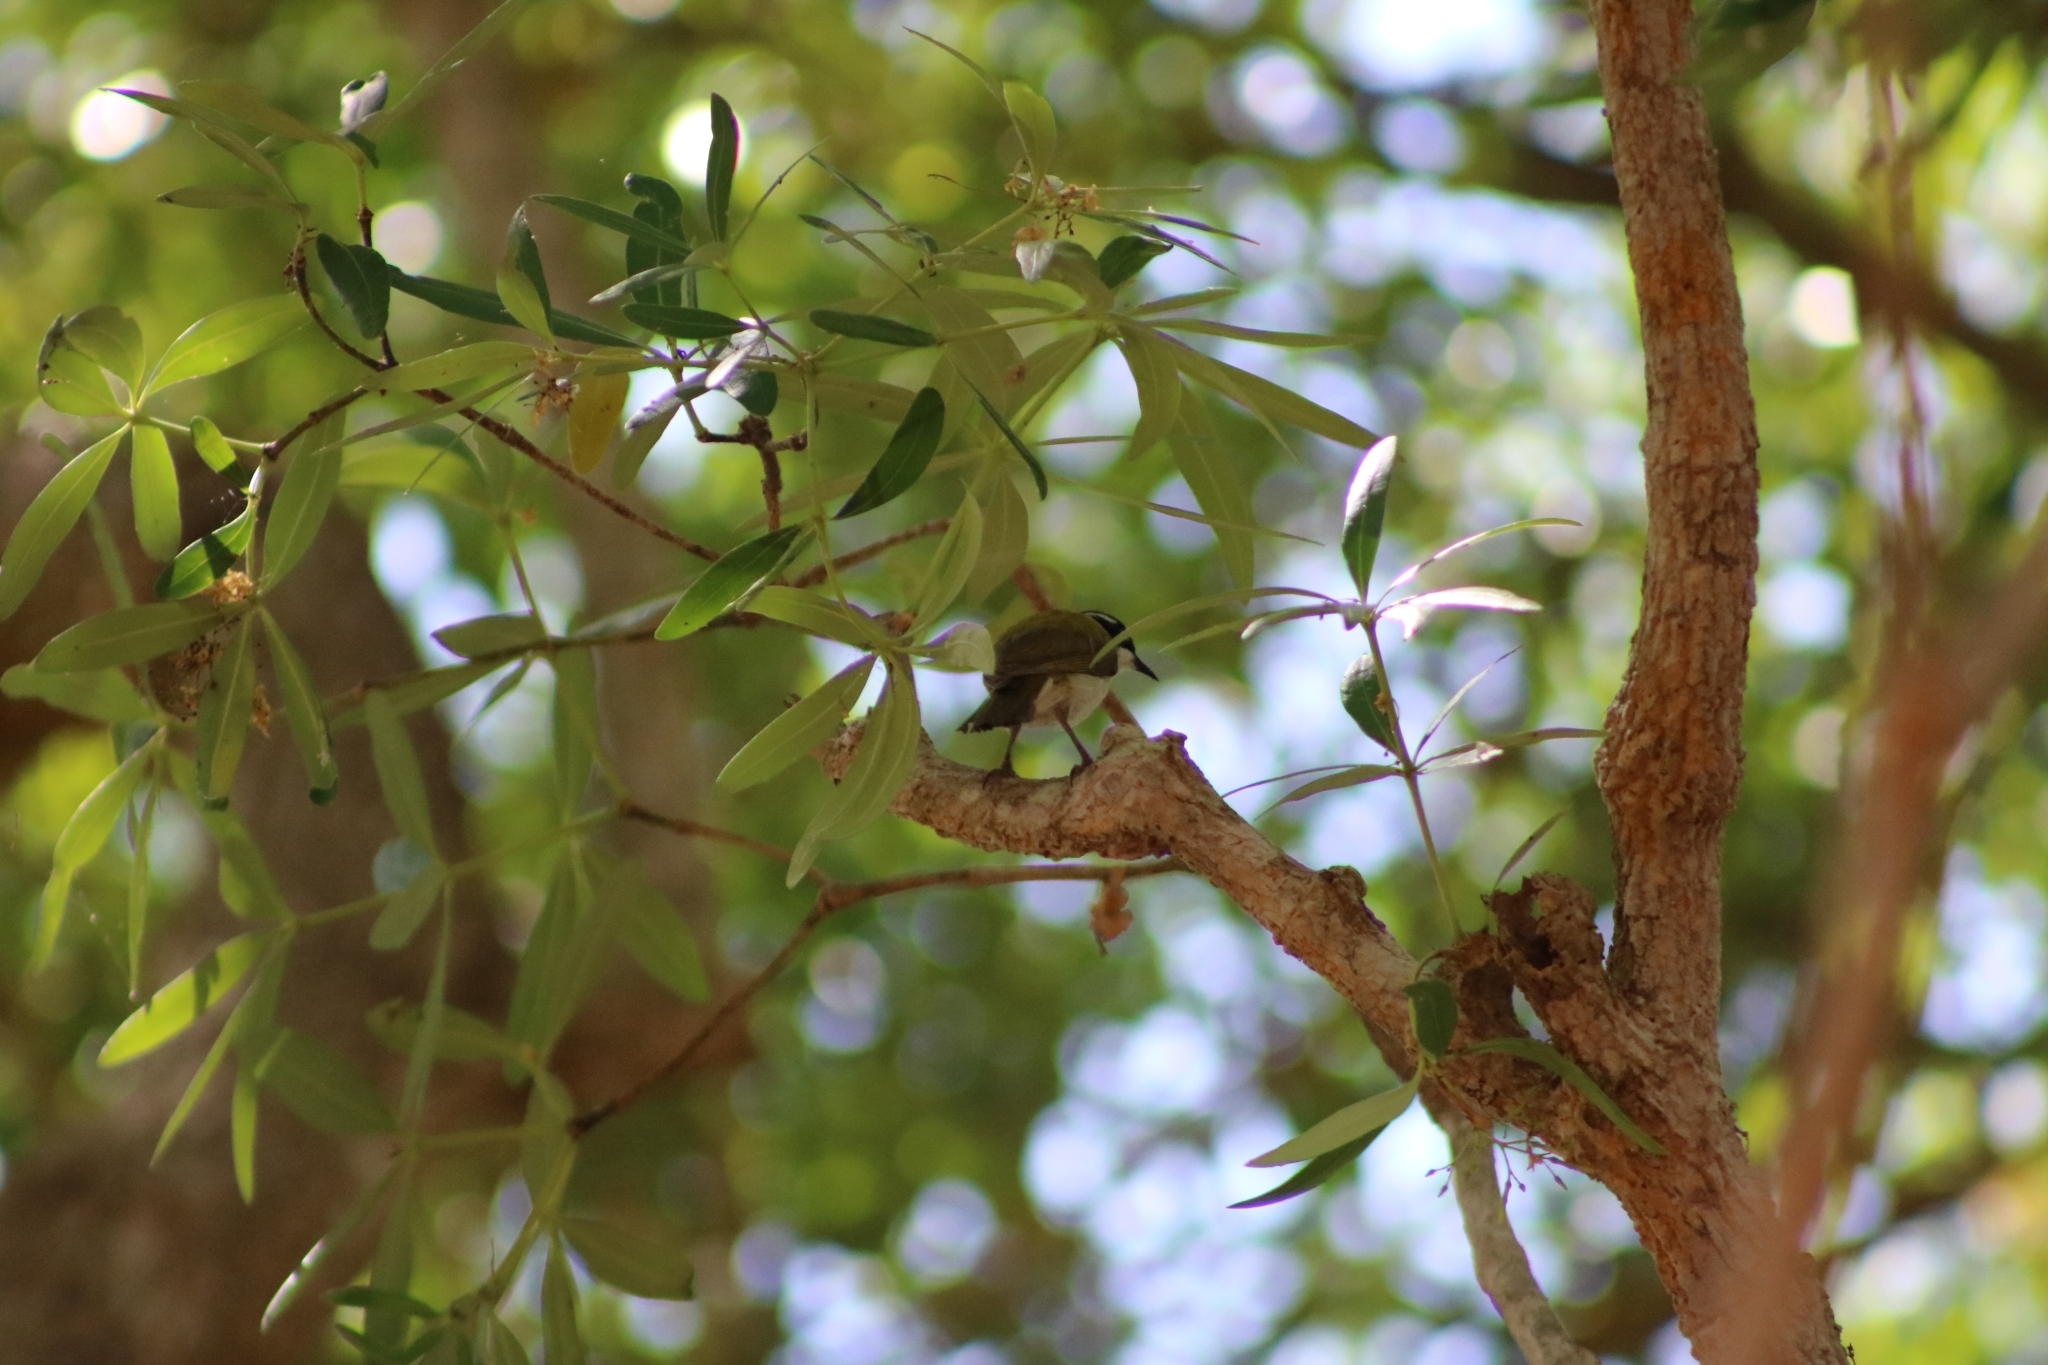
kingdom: Animalia
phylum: Chordata
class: Aves
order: Passeriformes
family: Meliphagidae
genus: Melithreptus
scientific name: Melithreptus albogularis
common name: White-throated honeyeater
